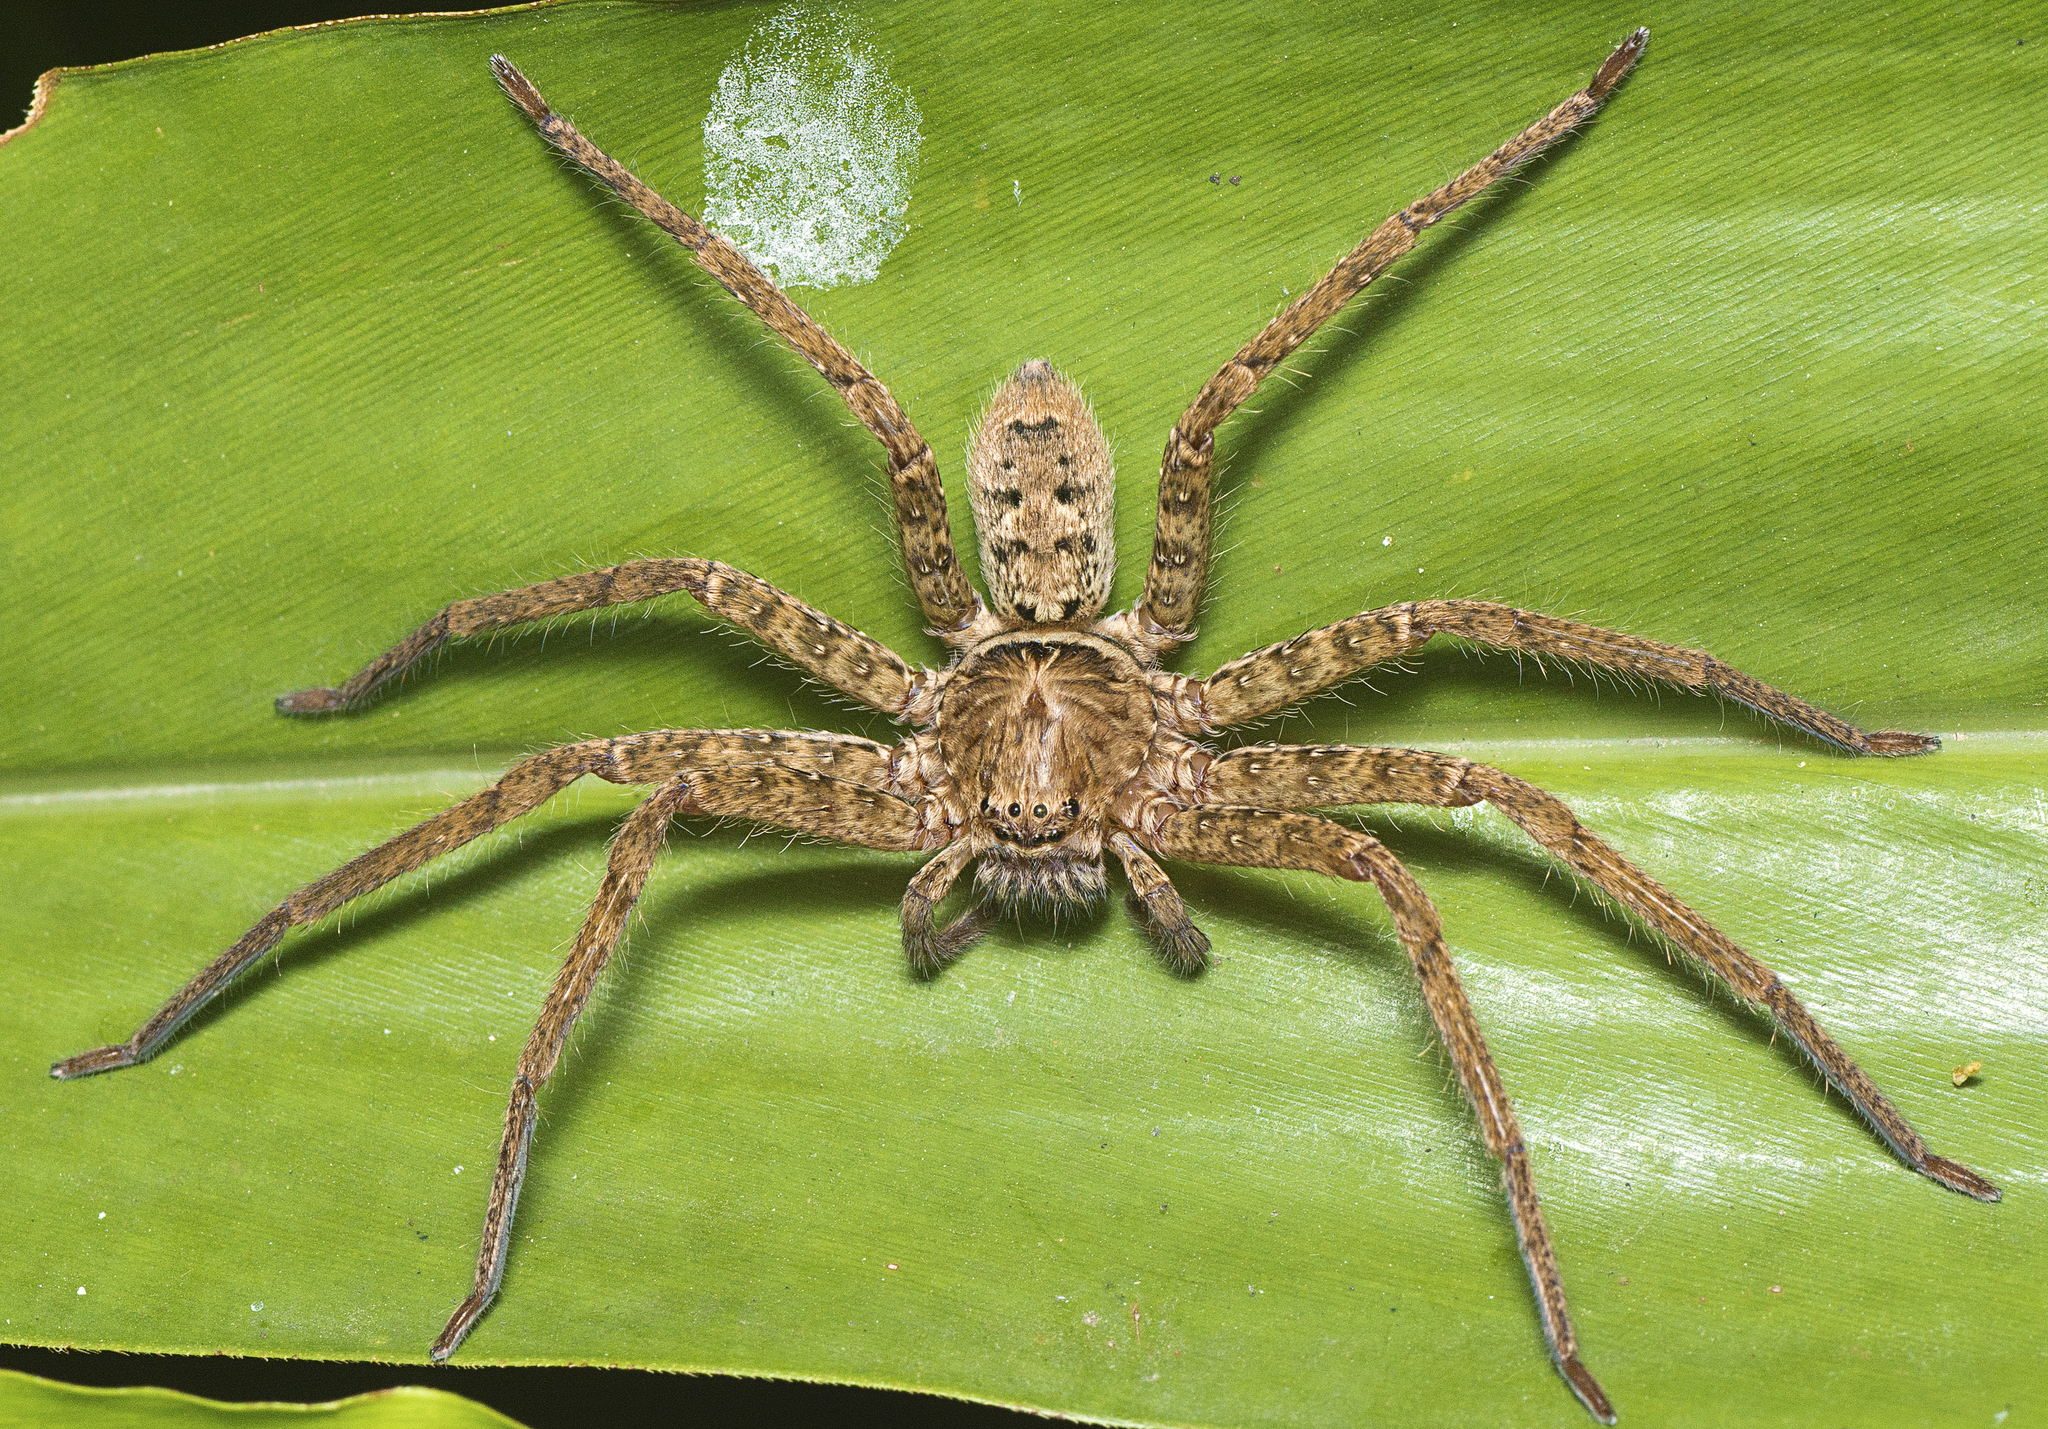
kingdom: Animalia
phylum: Arthropoda
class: Arachnida
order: Araneae
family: Sparassidae
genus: Heteropoda
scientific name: Heteropoda jugulans
